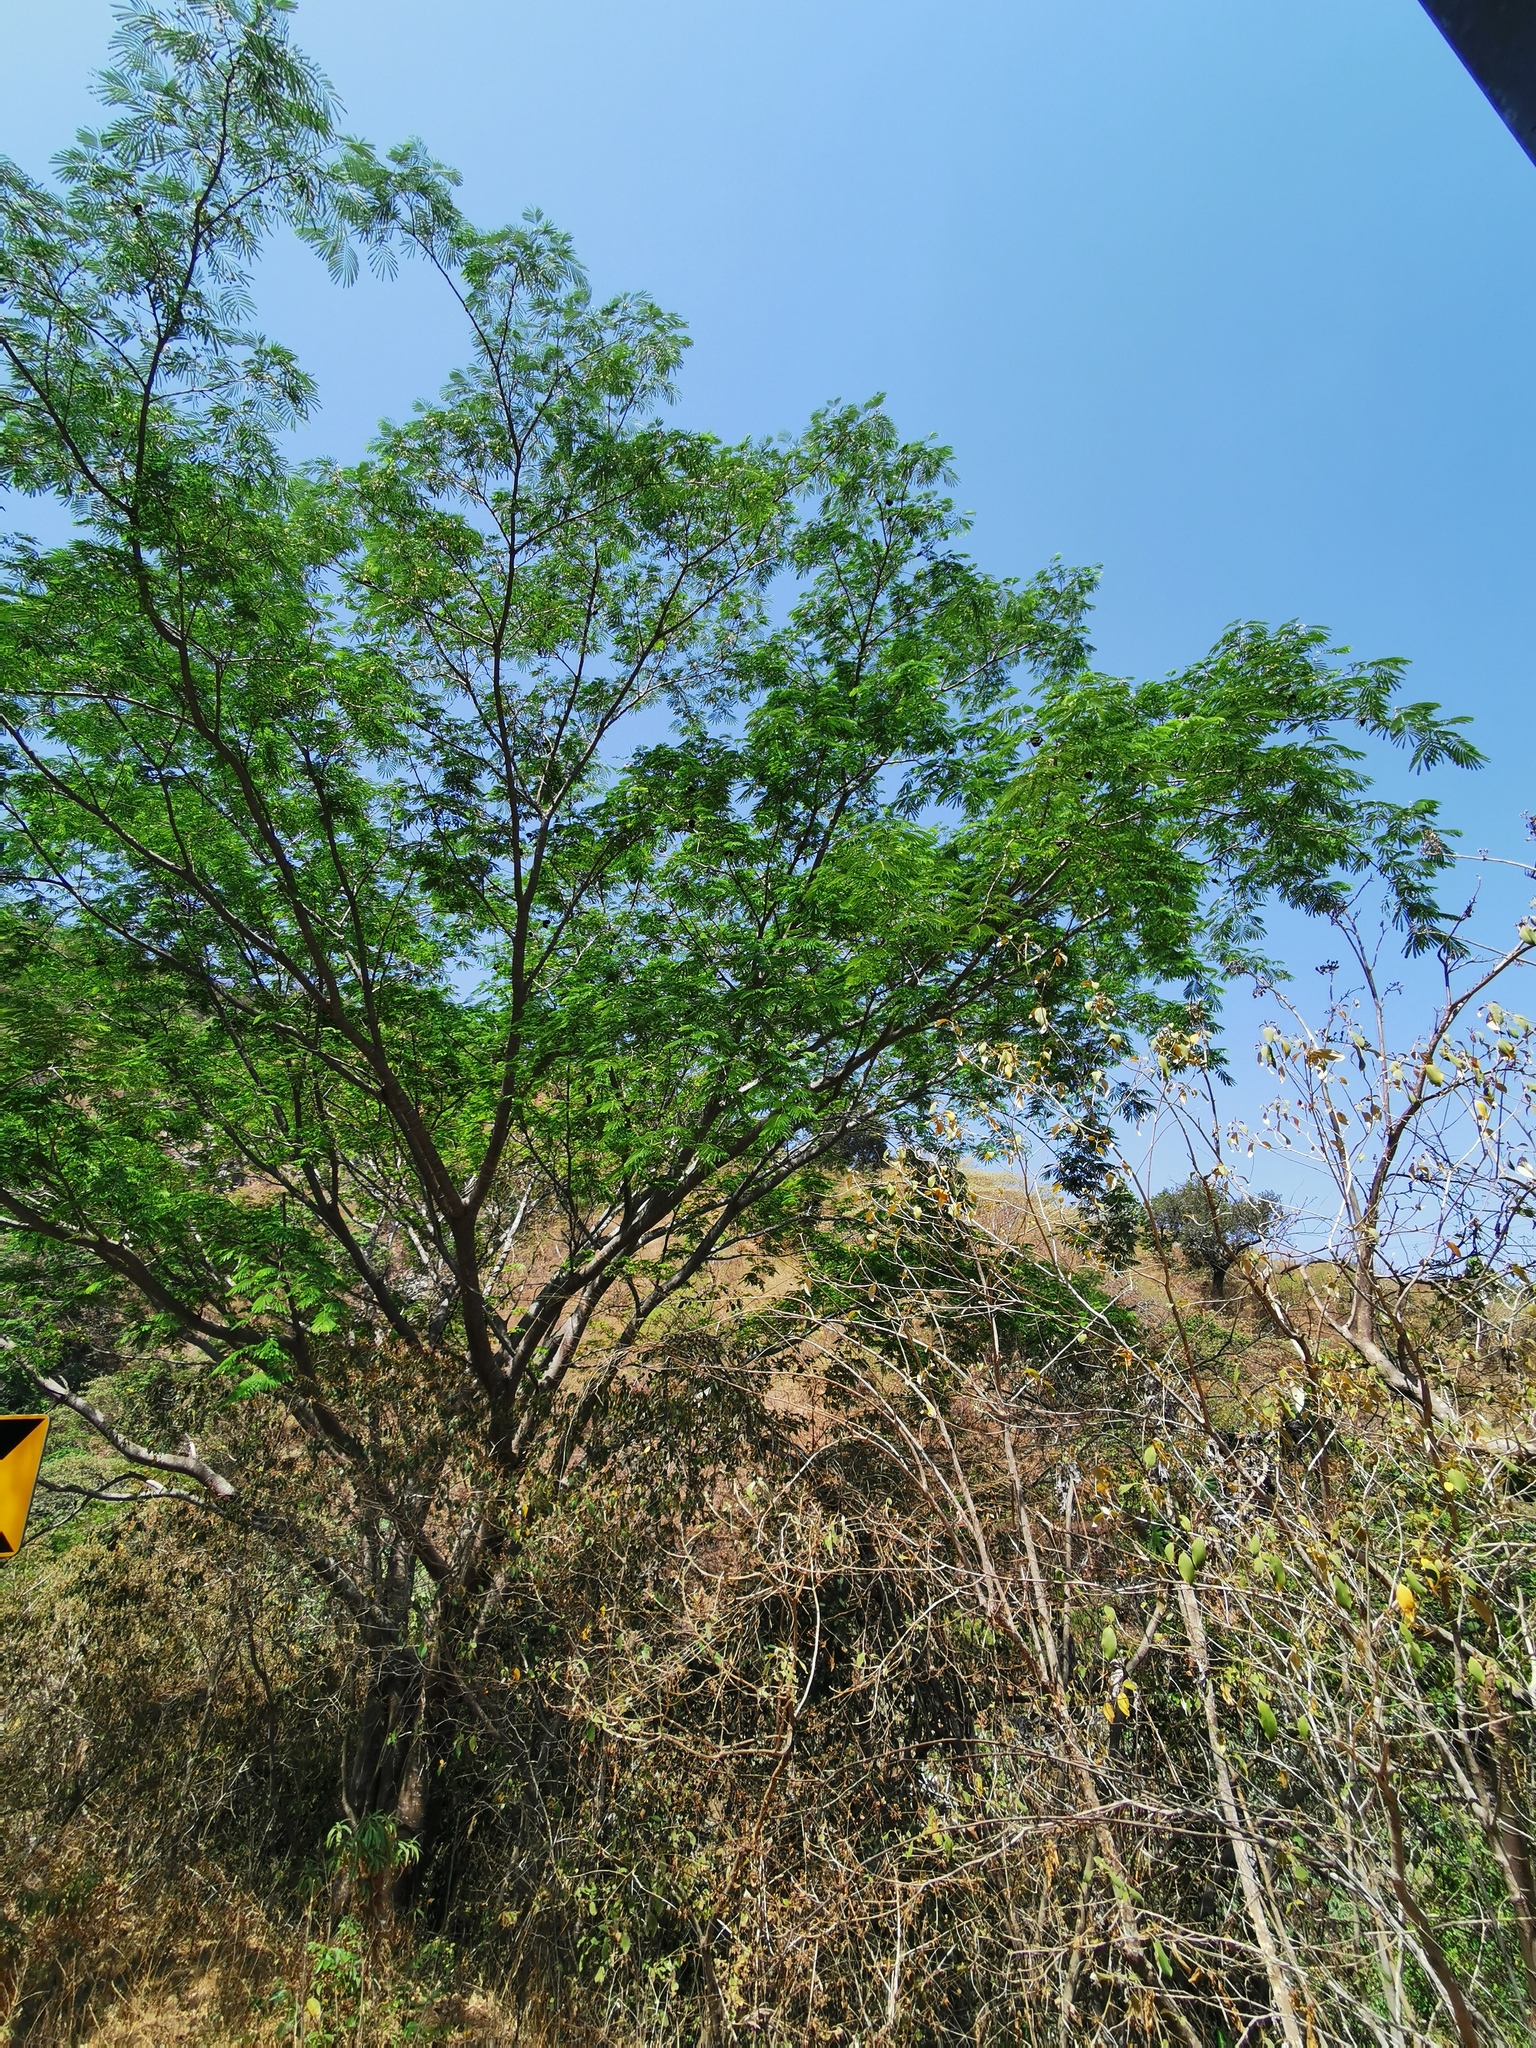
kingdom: Plantae
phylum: Tracheophyta
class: Magnoliopsida
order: Fabales
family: Fabaceae
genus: Enterolobium
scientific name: Enterolobium cyclocarpum
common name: Ear tree
